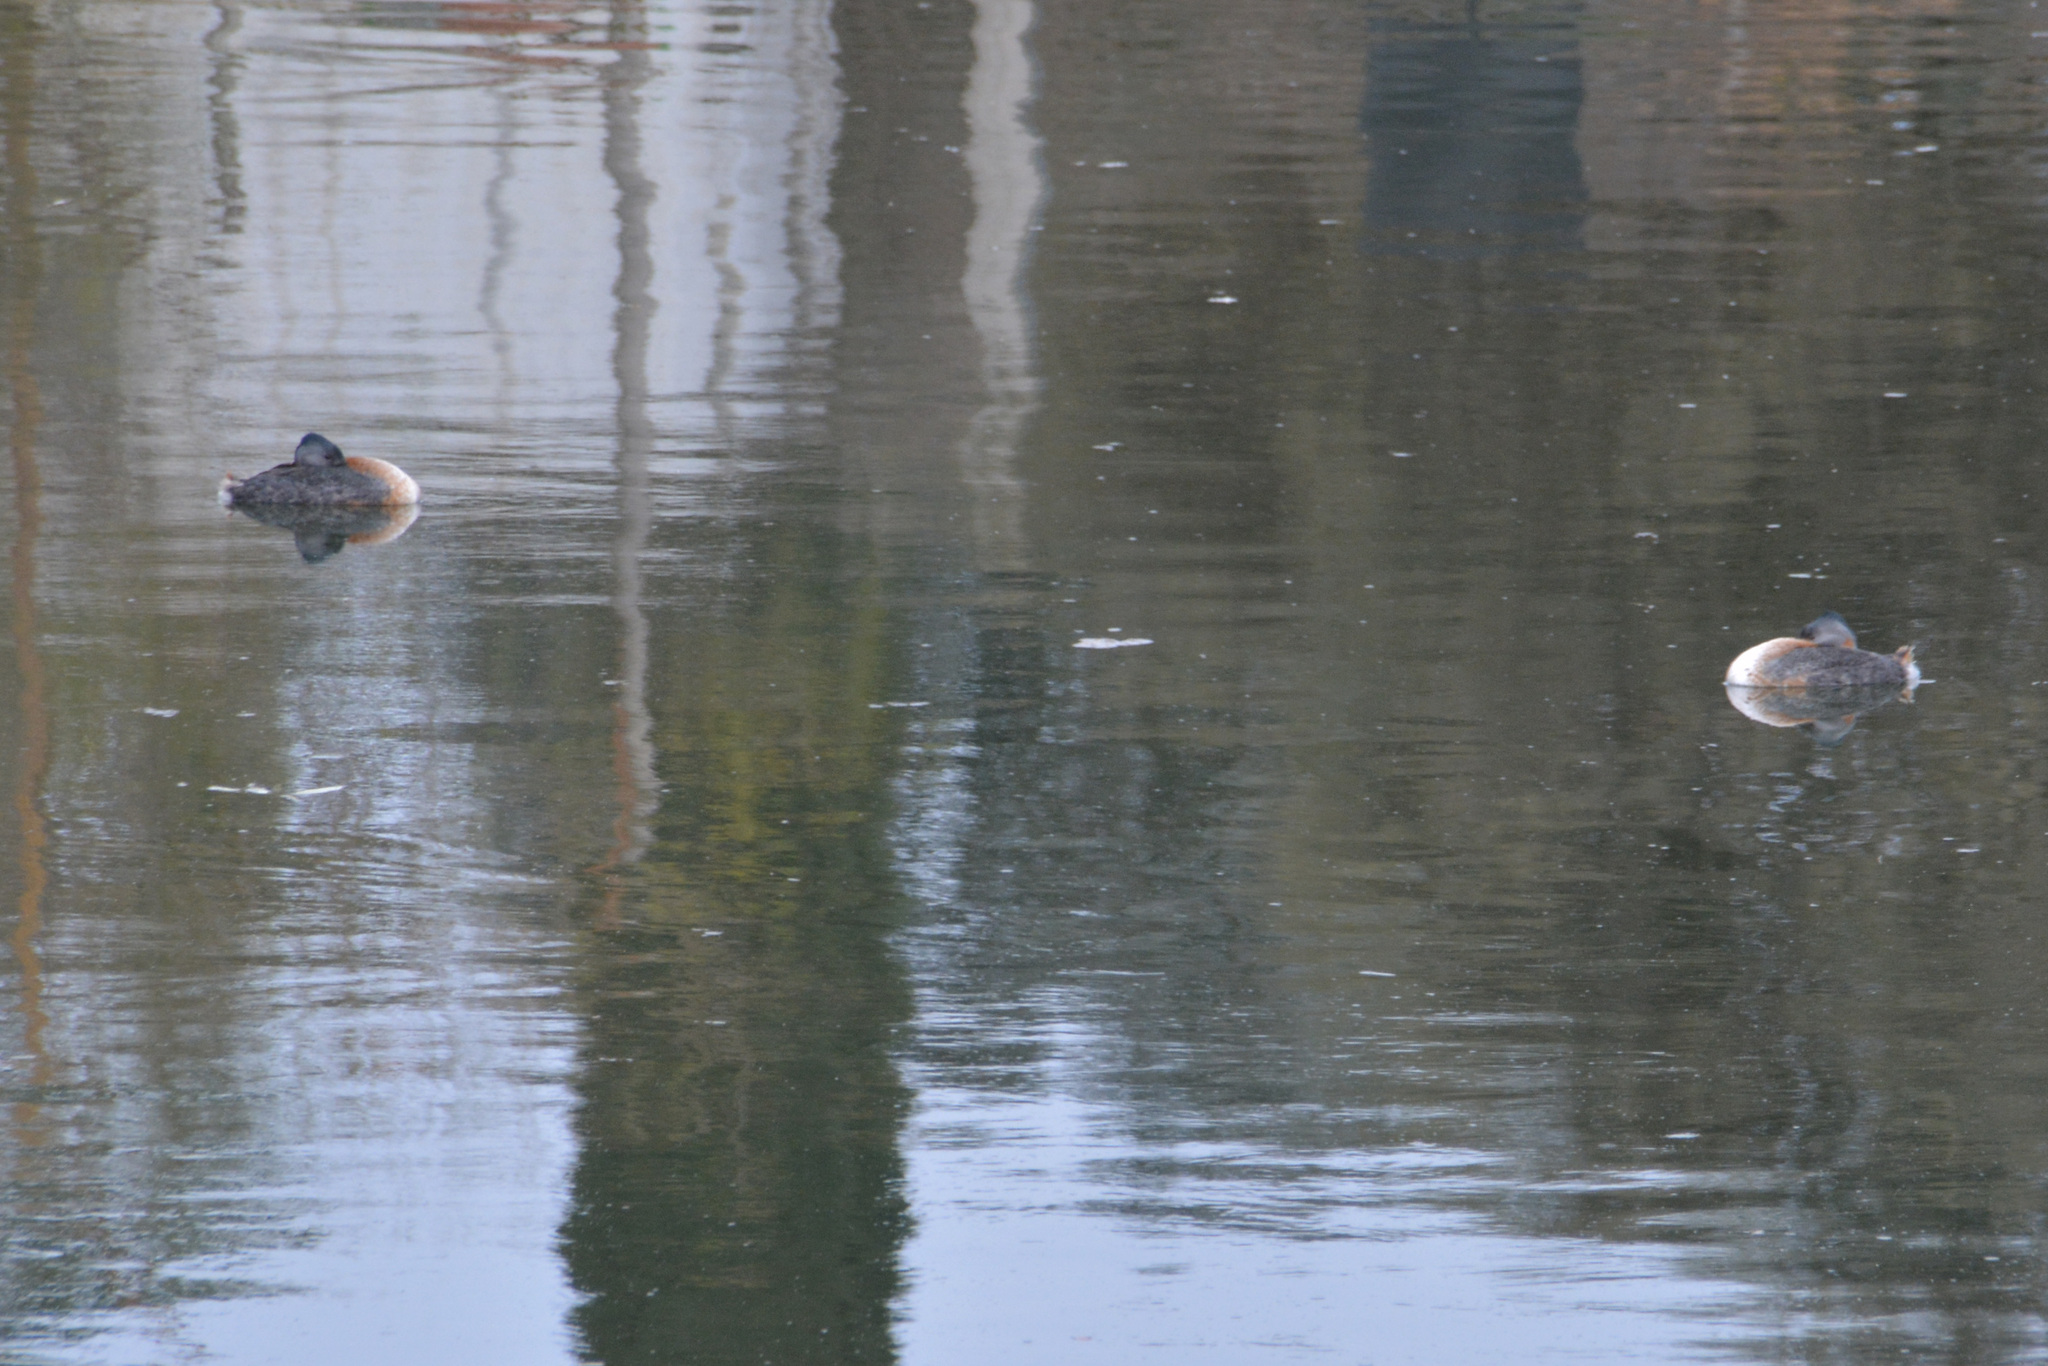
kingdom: Animalia
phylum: Chordata
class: Aves
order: Podicipediformes
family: Podicipedidae
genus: Podiceps
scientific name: Podiceps major
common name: Great grebe
